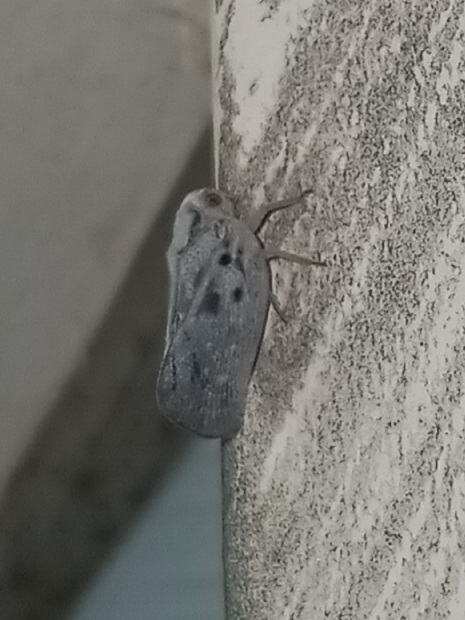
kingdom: Animalia
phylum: Arthropoda
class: Insecta
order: Hemiptera
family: Flatidae
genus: Metcalfa
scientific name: Metcalfa pruinosa
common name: Citrus flatid planthopper
